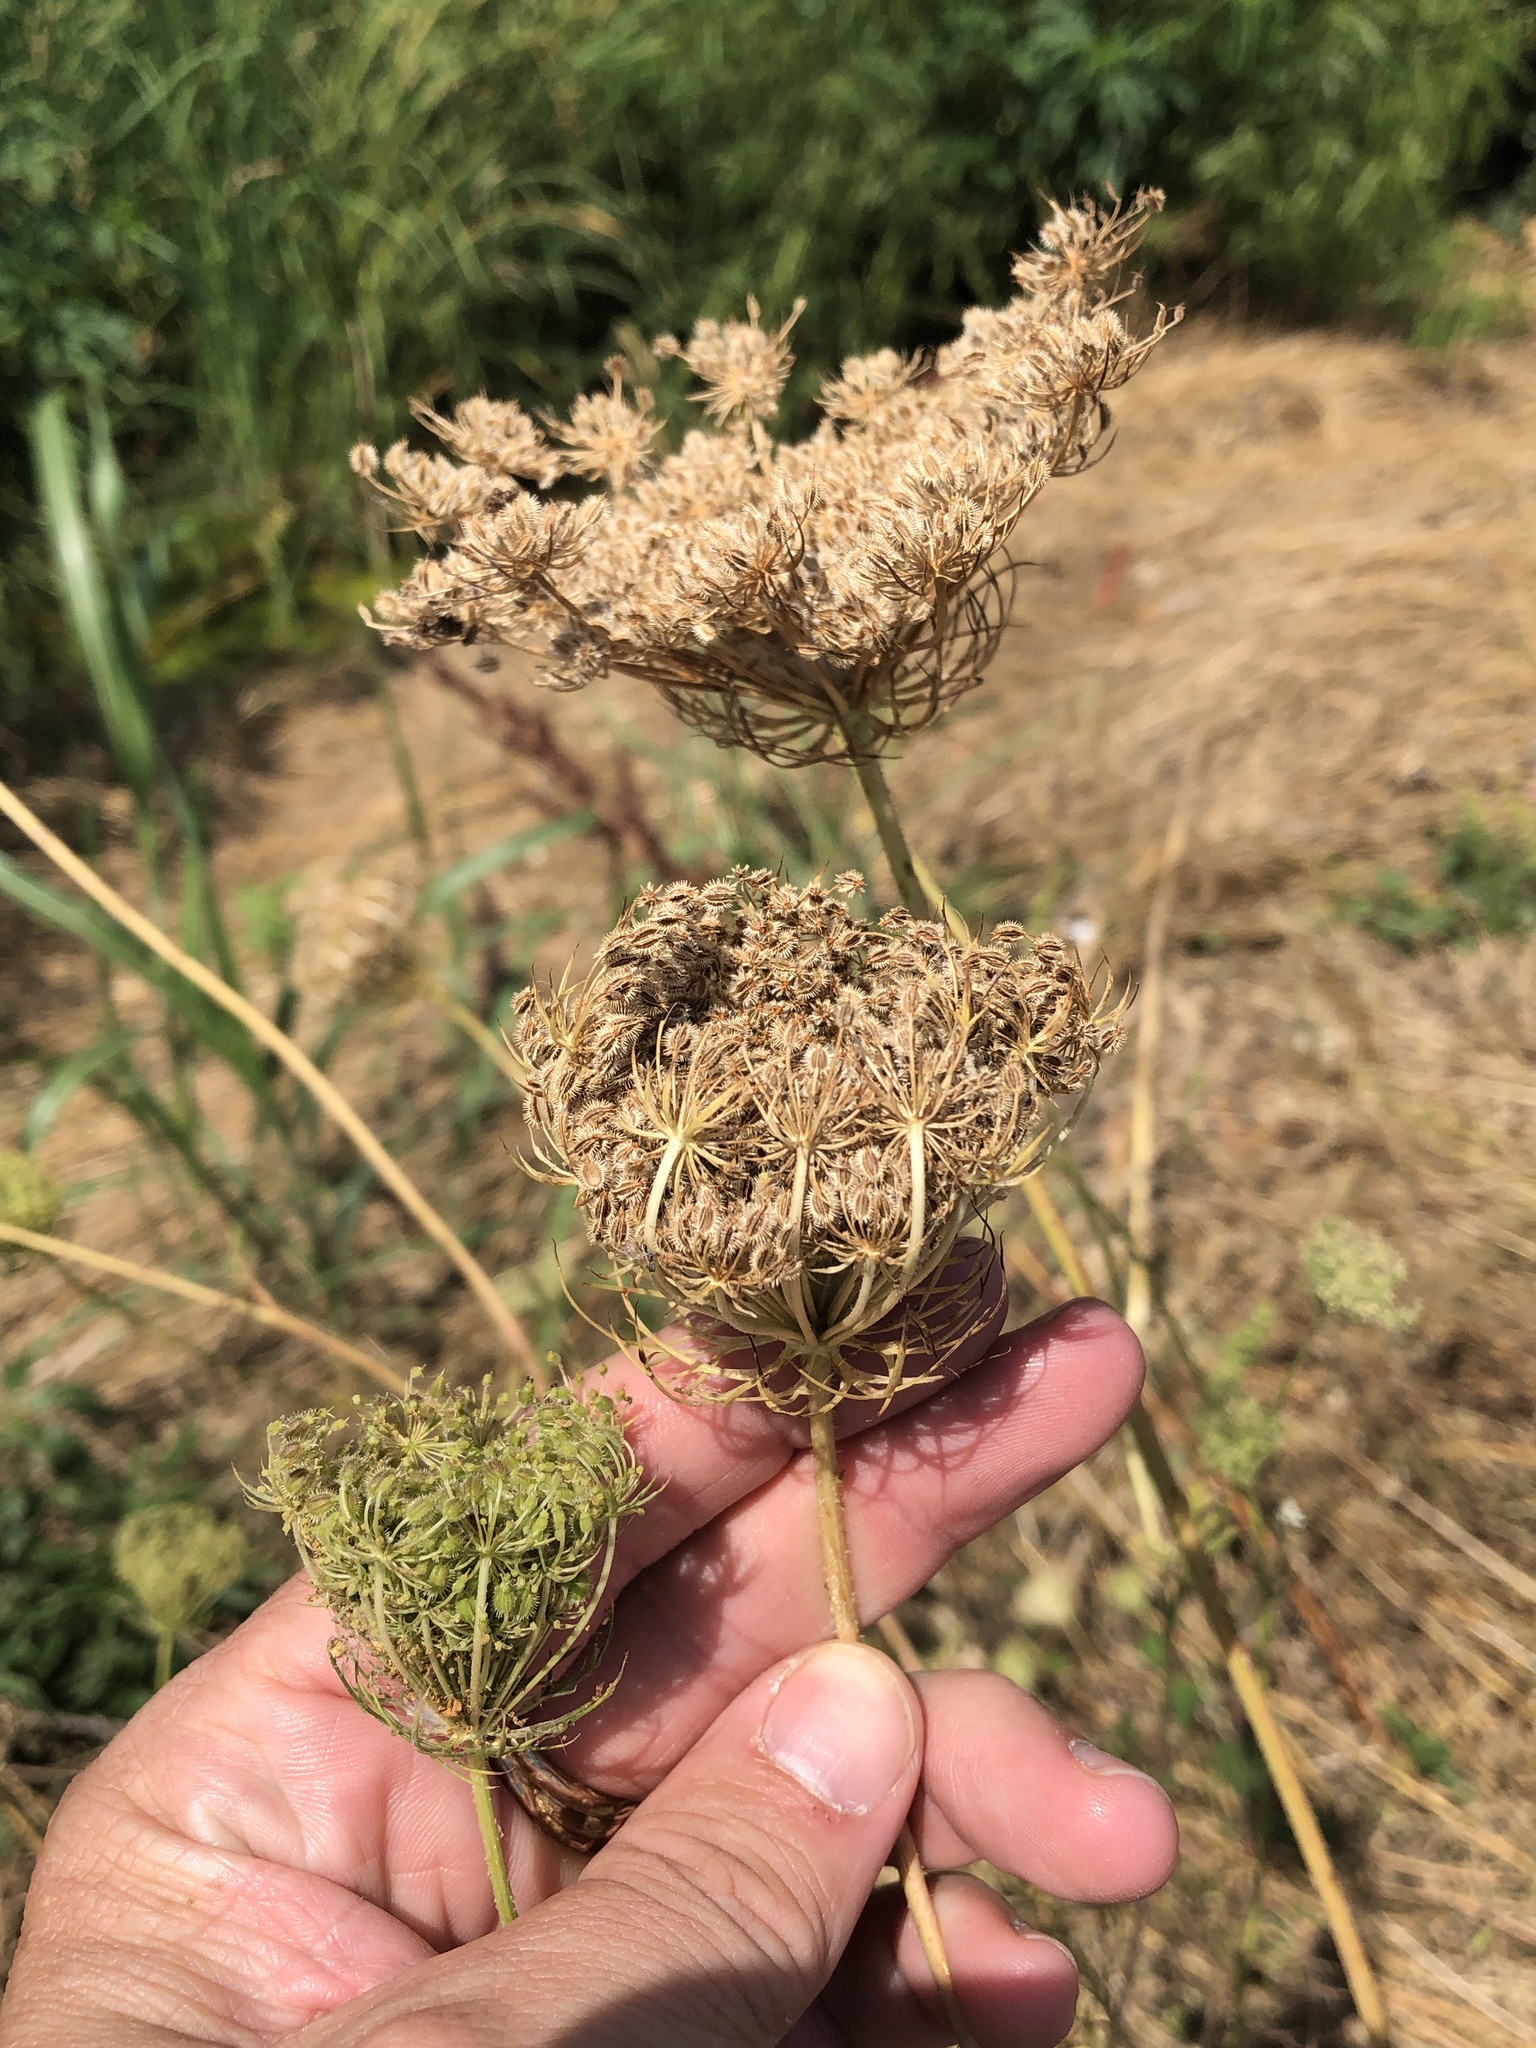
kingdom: Plantae
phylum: Tracheophyta
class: Magnoliopsida
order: Apiales
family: Apiaceae
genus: Daucus
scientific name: Daucus carota
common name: Wild carrot
